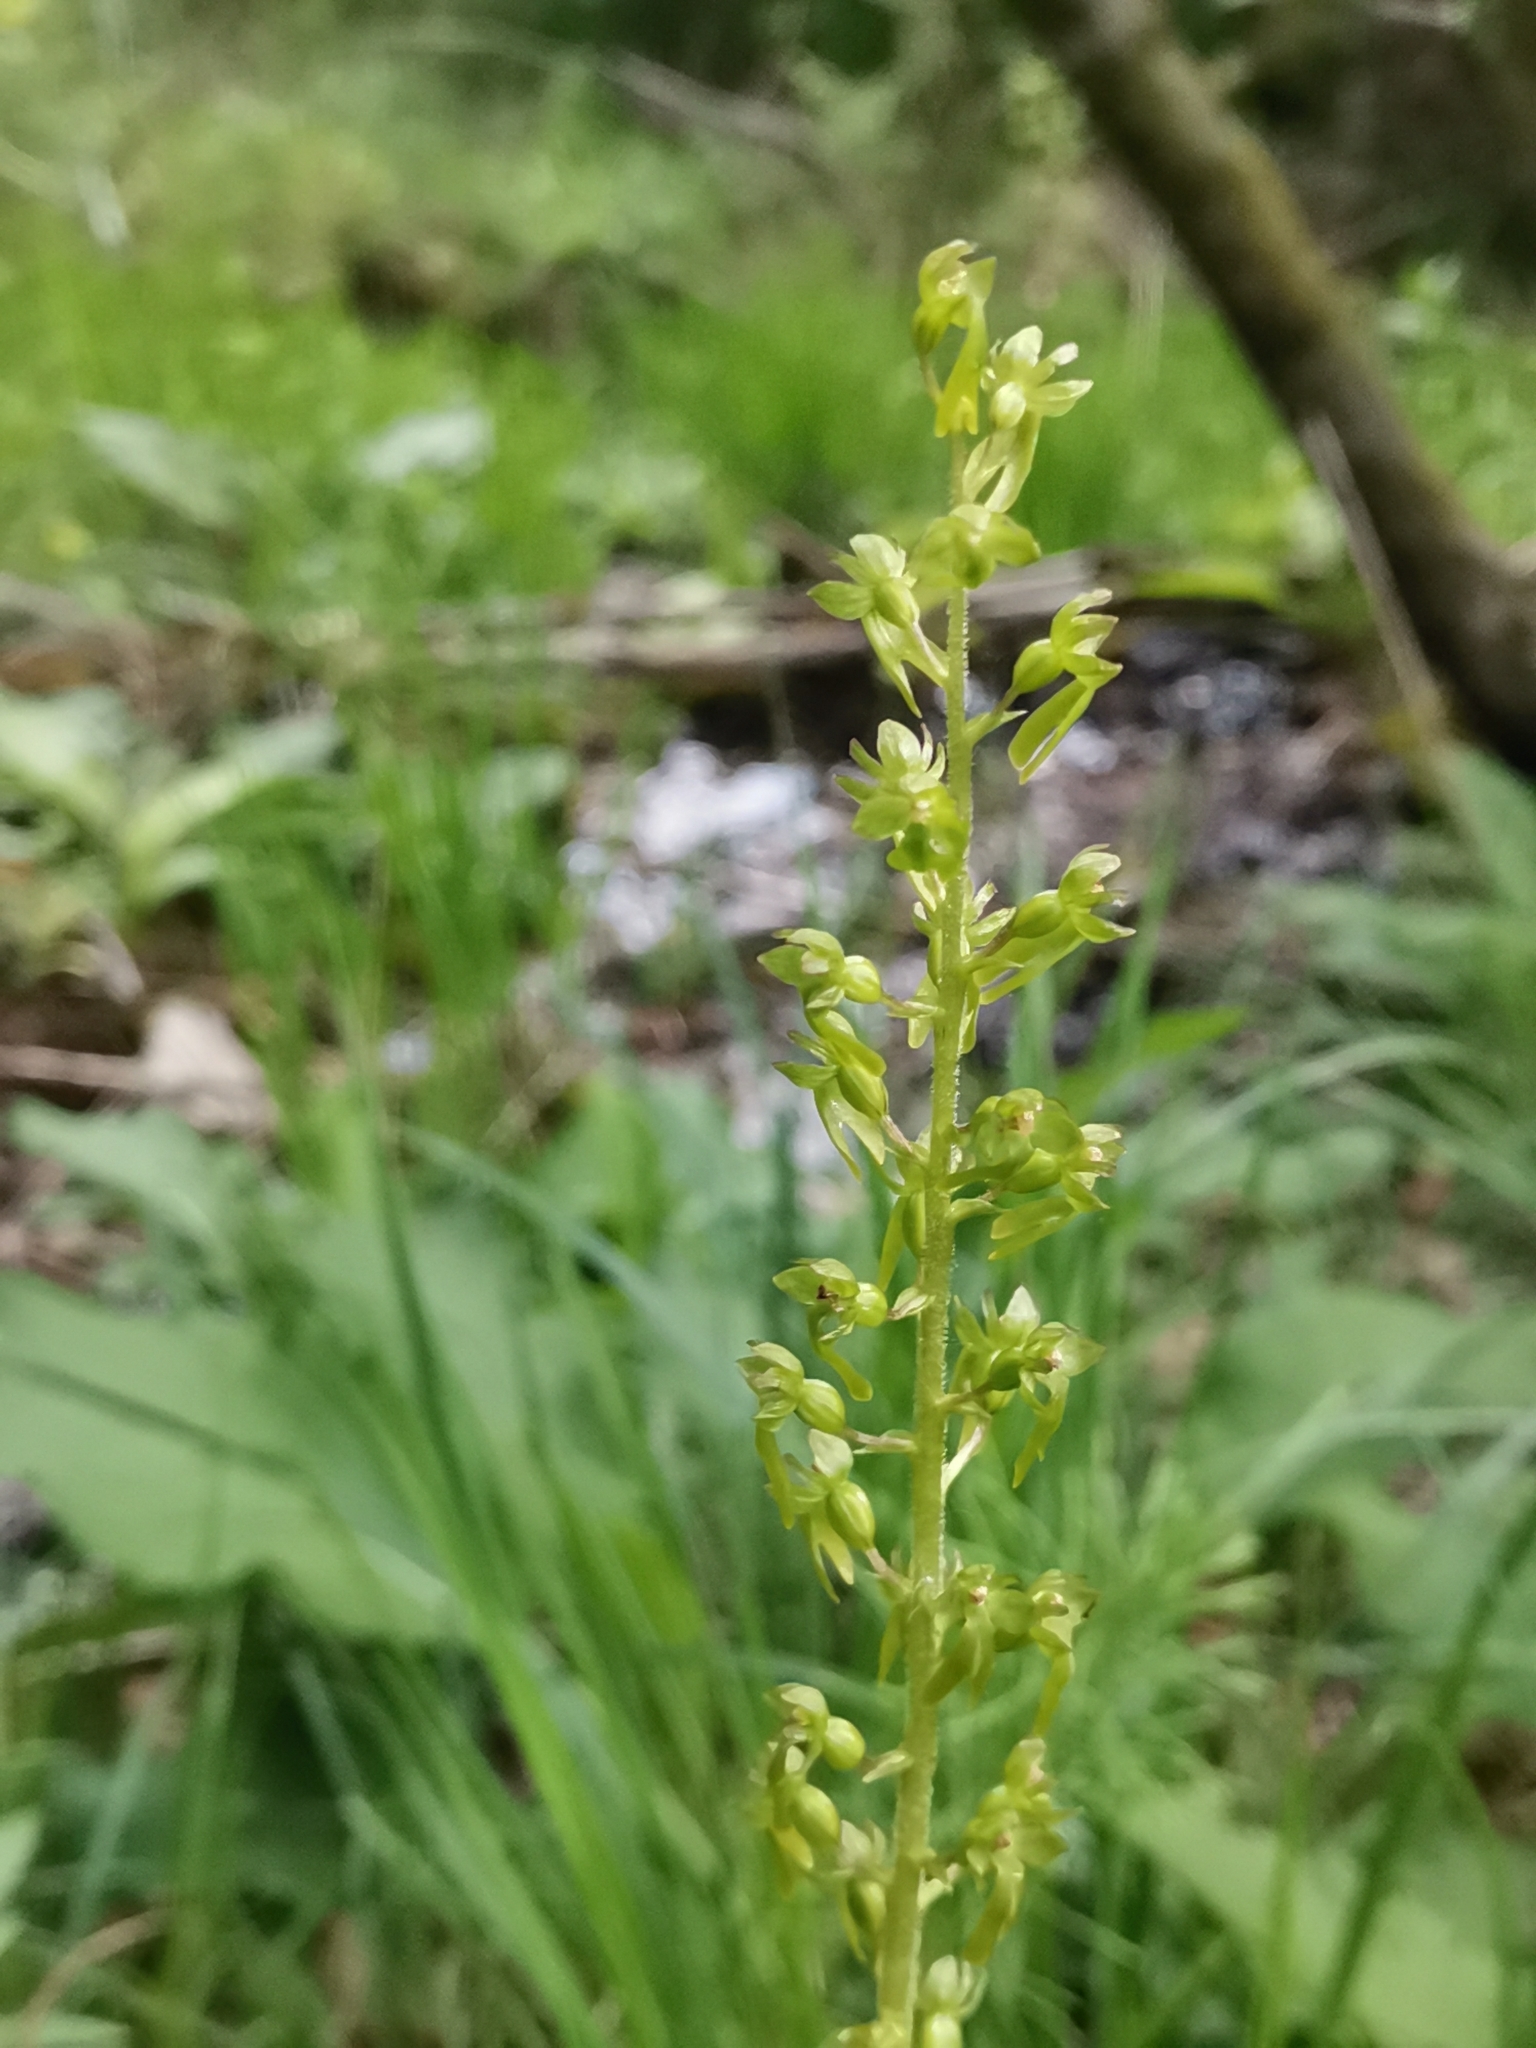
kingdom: Plantae
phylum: Tracheophyta
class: Liliopsida
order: Asparagales
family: Orchidaceae
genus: Neottia
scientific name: Neottia ovata
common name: Common twayblade
